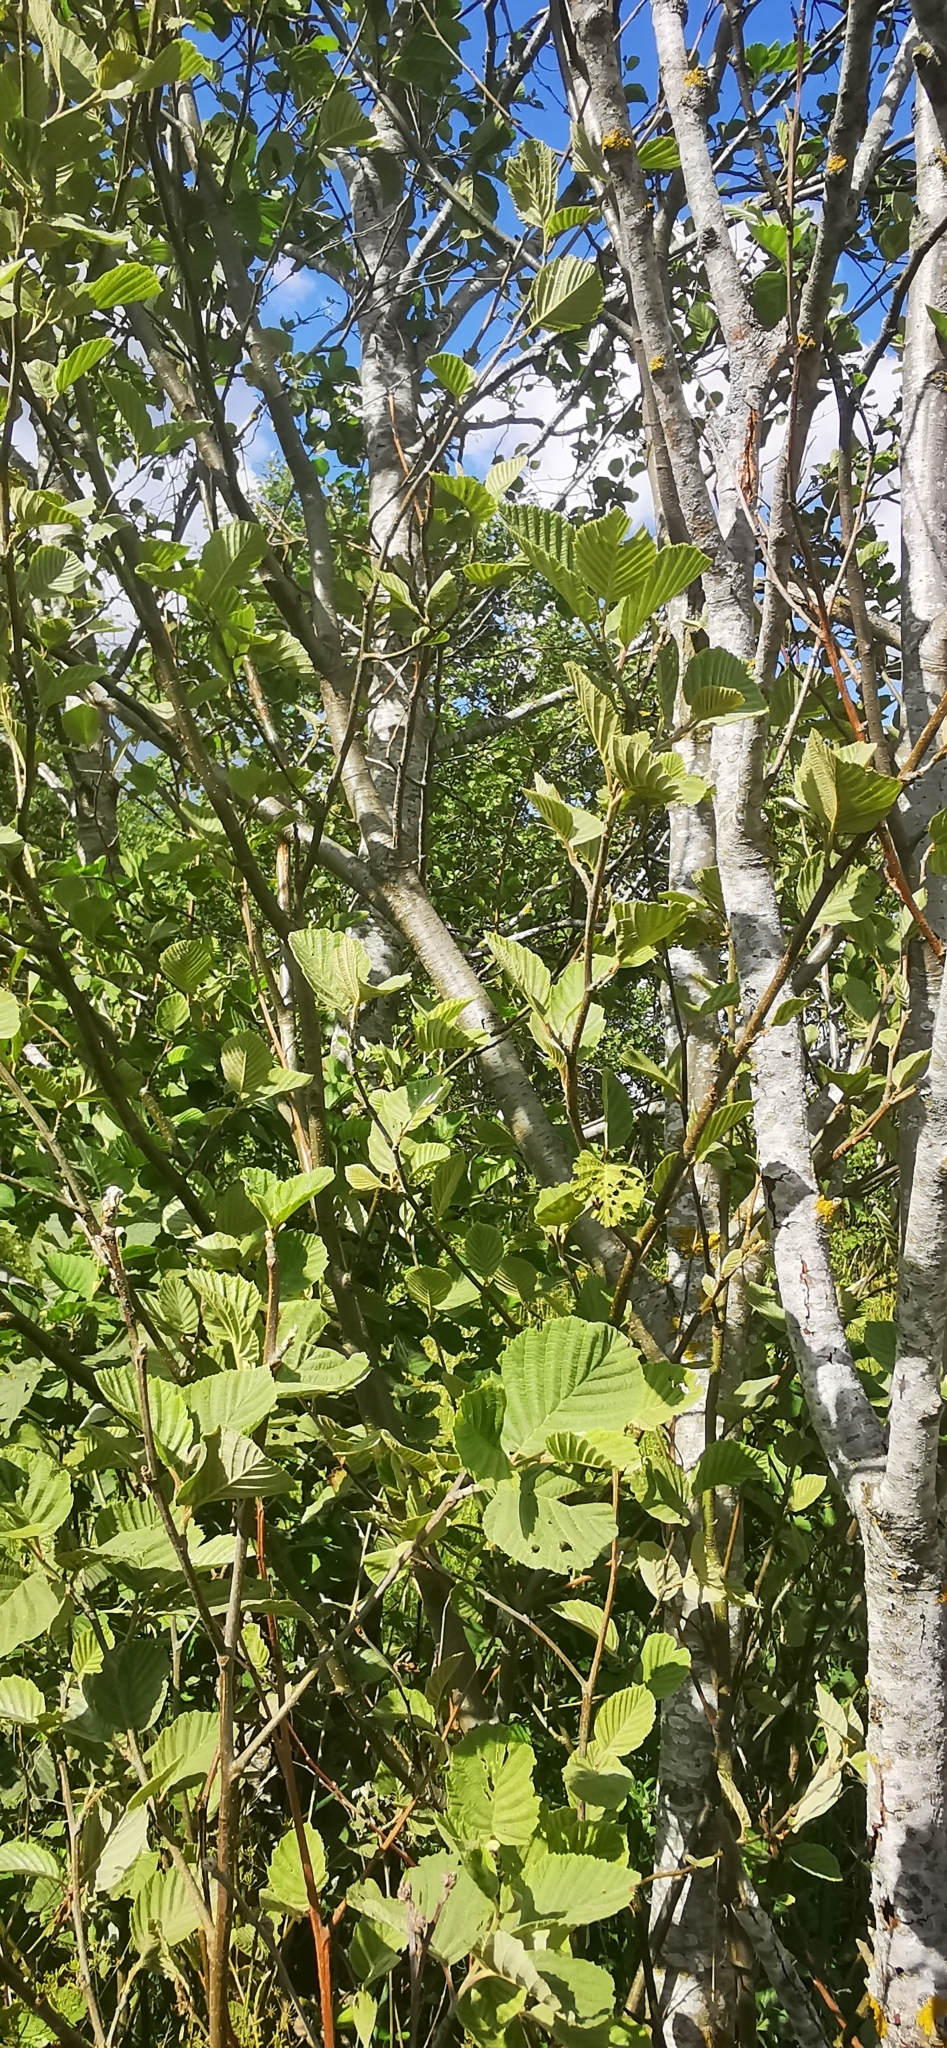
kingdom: Plantae
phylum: Tracheophyta
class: Magnoliopsida
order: Fagales
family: Betulaceae
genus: Alnus
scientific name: Alnus incana
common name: Grey alder
